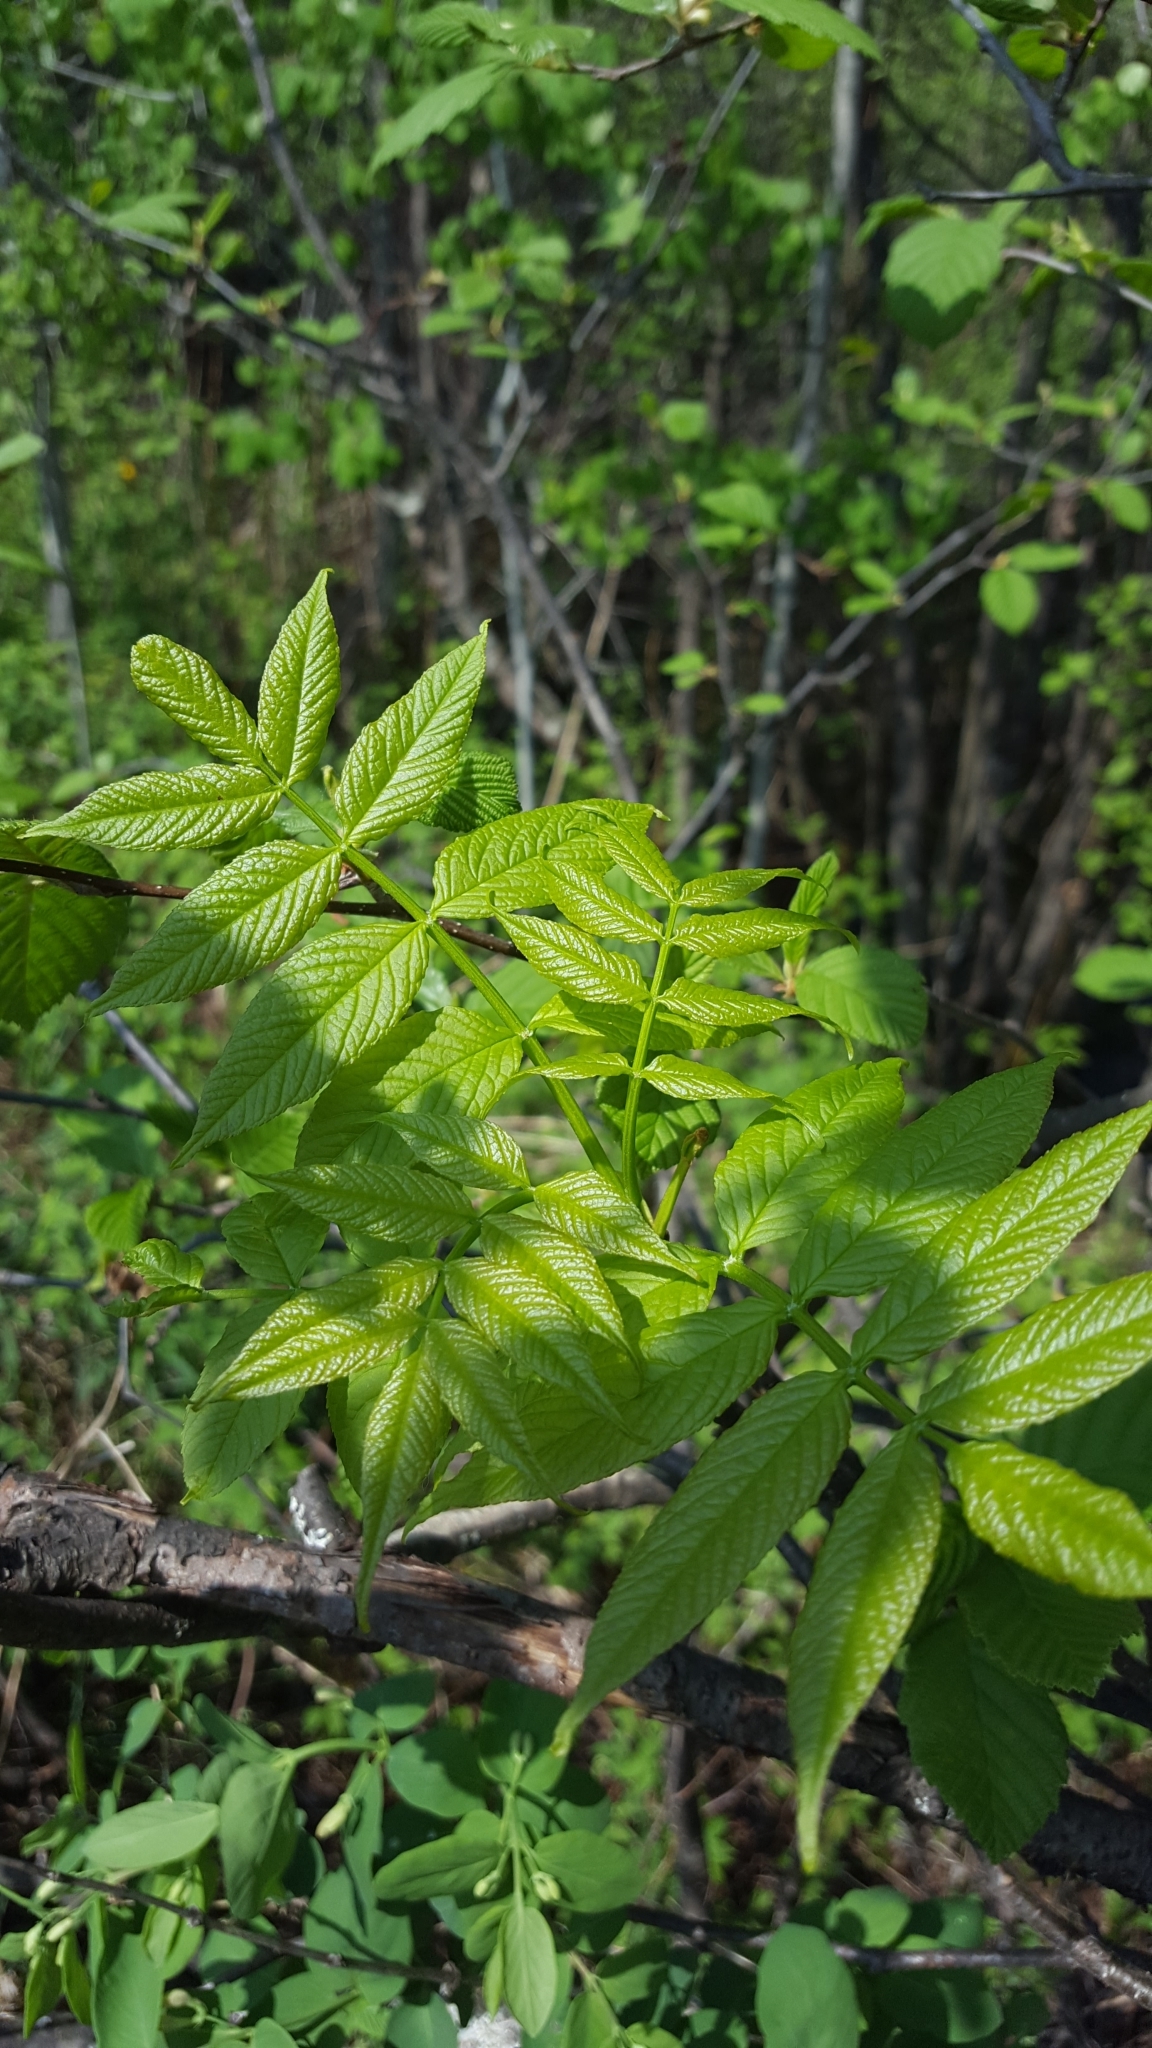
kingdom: Plantae
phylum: Tracheophyta
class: Magnoliopsida
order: Lamiales
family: Oleaceae
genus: Fraxinus
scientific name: Fraxinus nigra
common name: Black ash
